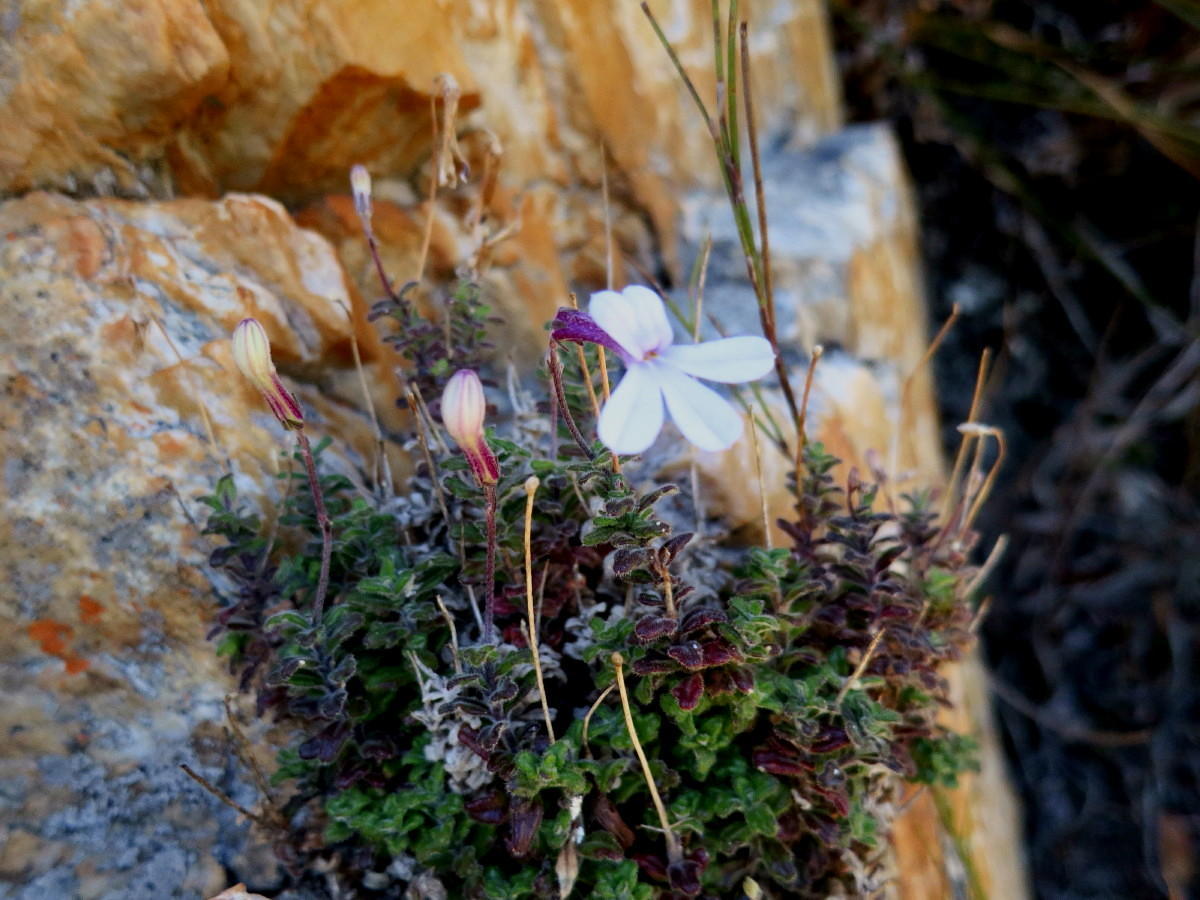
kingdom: Plantae
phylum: Tracheophyta
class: Magnoliopsida
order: Asterales
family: Campanulaceae
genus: Lobelia
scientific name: Lobelia dichroma
